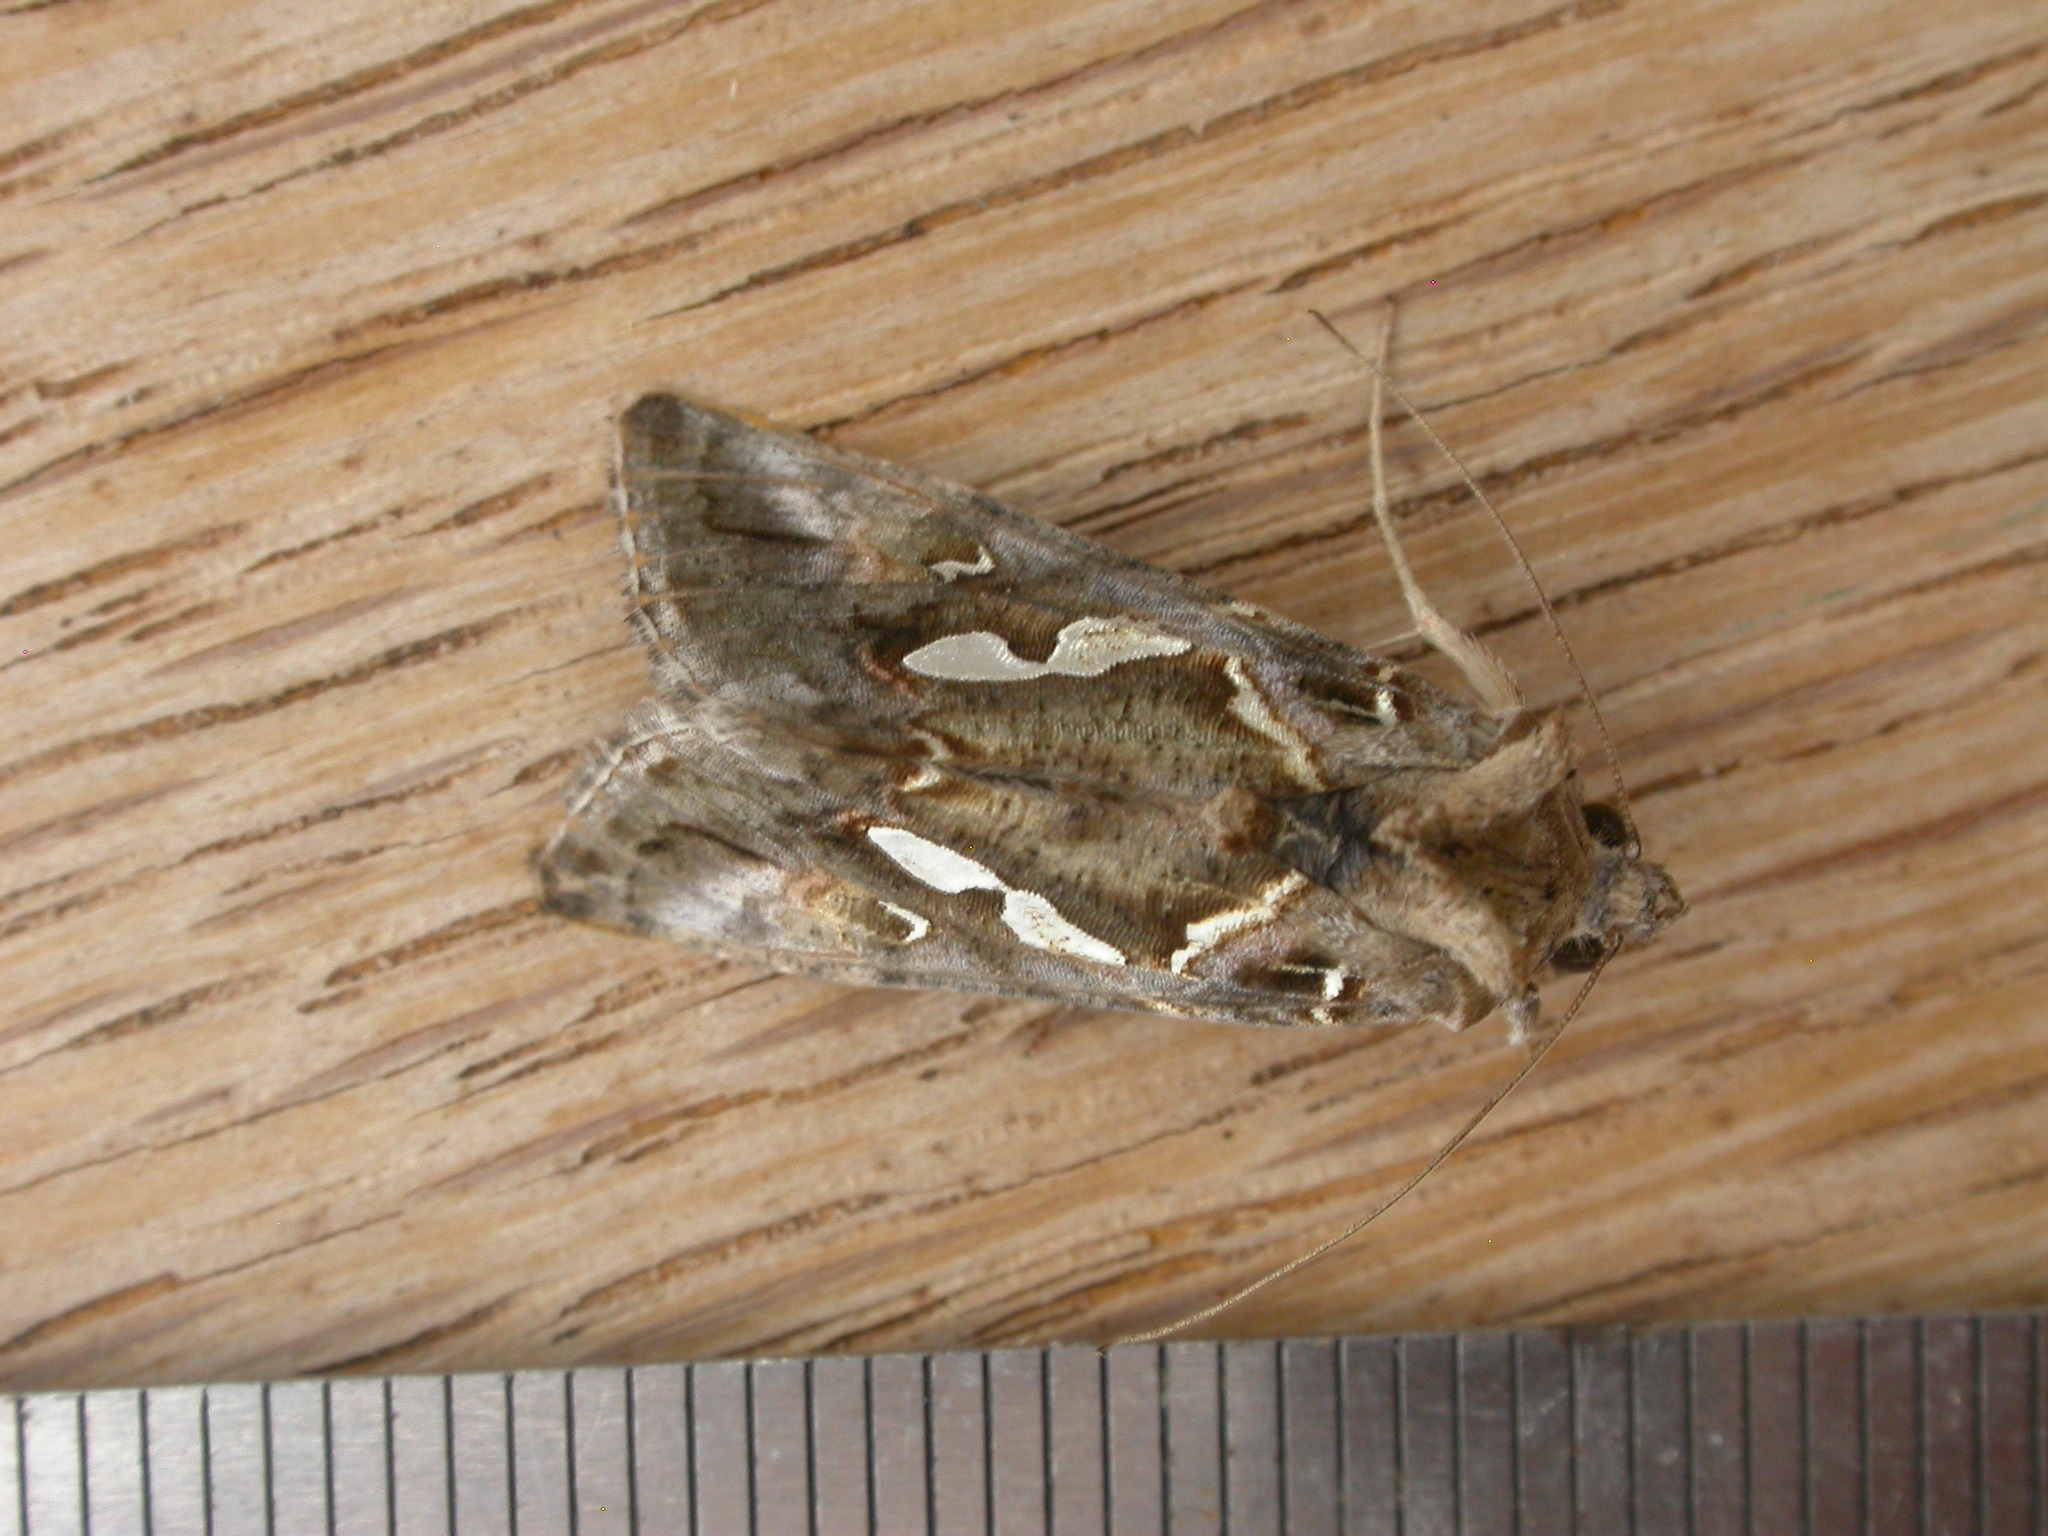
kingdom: Animalia
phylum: Arthropoda
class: Insecta
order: Lepidoptera
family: Noctuidae
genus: Chrysodeixis
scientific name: Chrysodeixis argentifera
